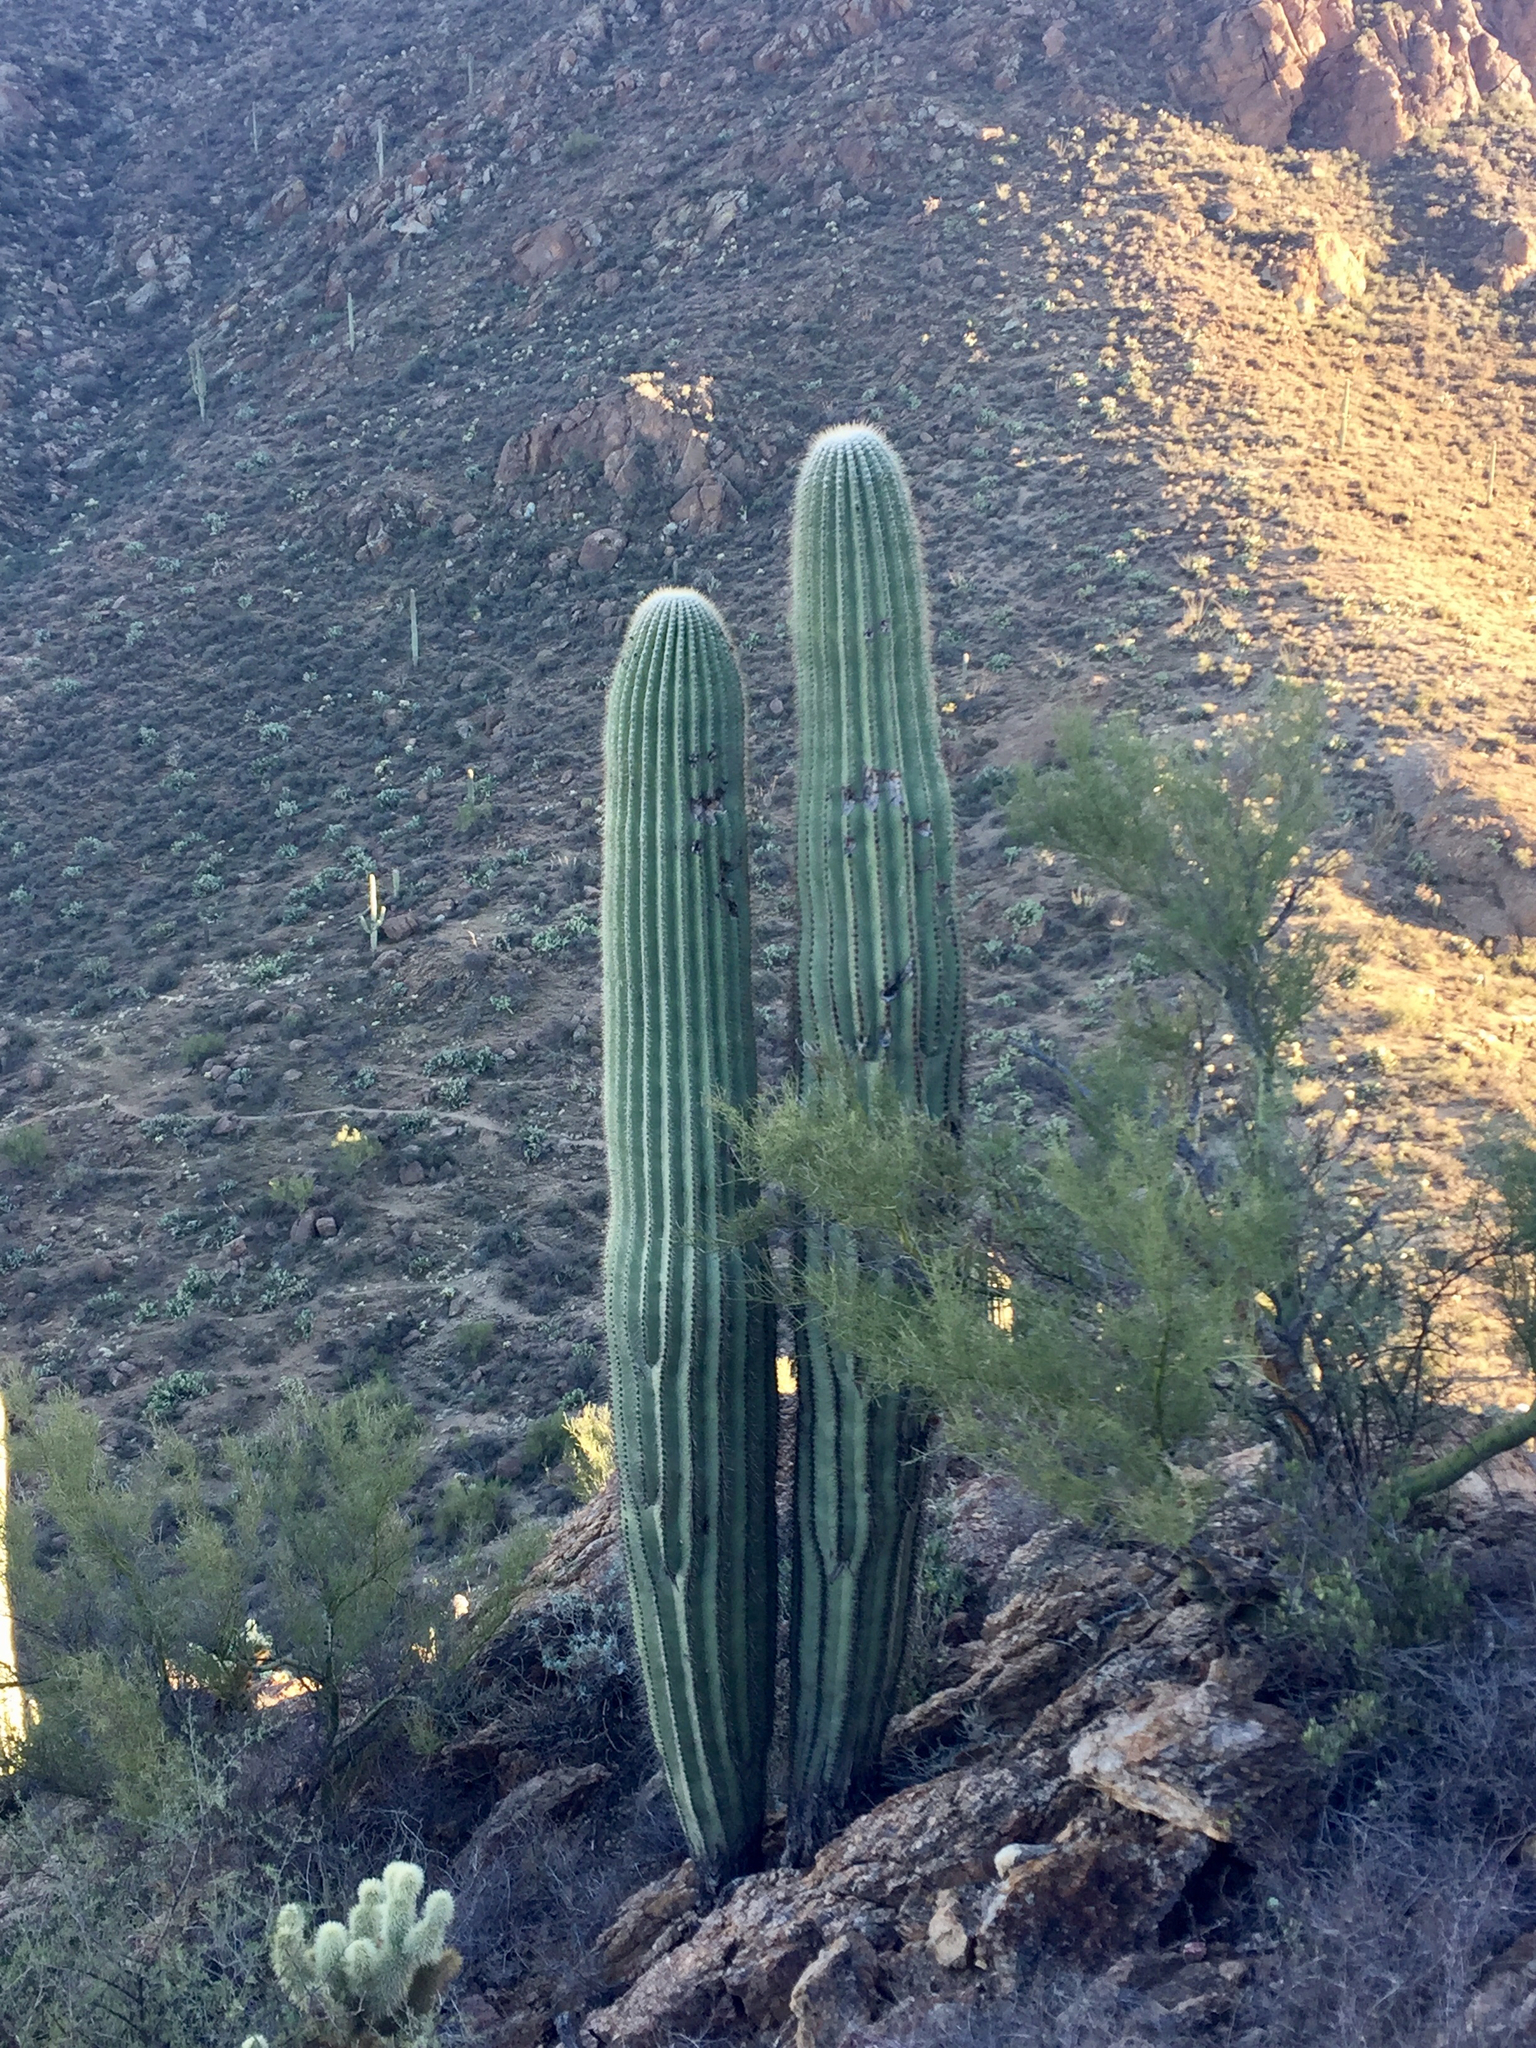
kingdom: Plantae
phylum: Tracheophyta
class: Magnoliopsida
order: Caryophyllales
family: Cactaceae
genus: Carnegiea
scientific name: Carnegiea gigantea
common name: Saguaro
